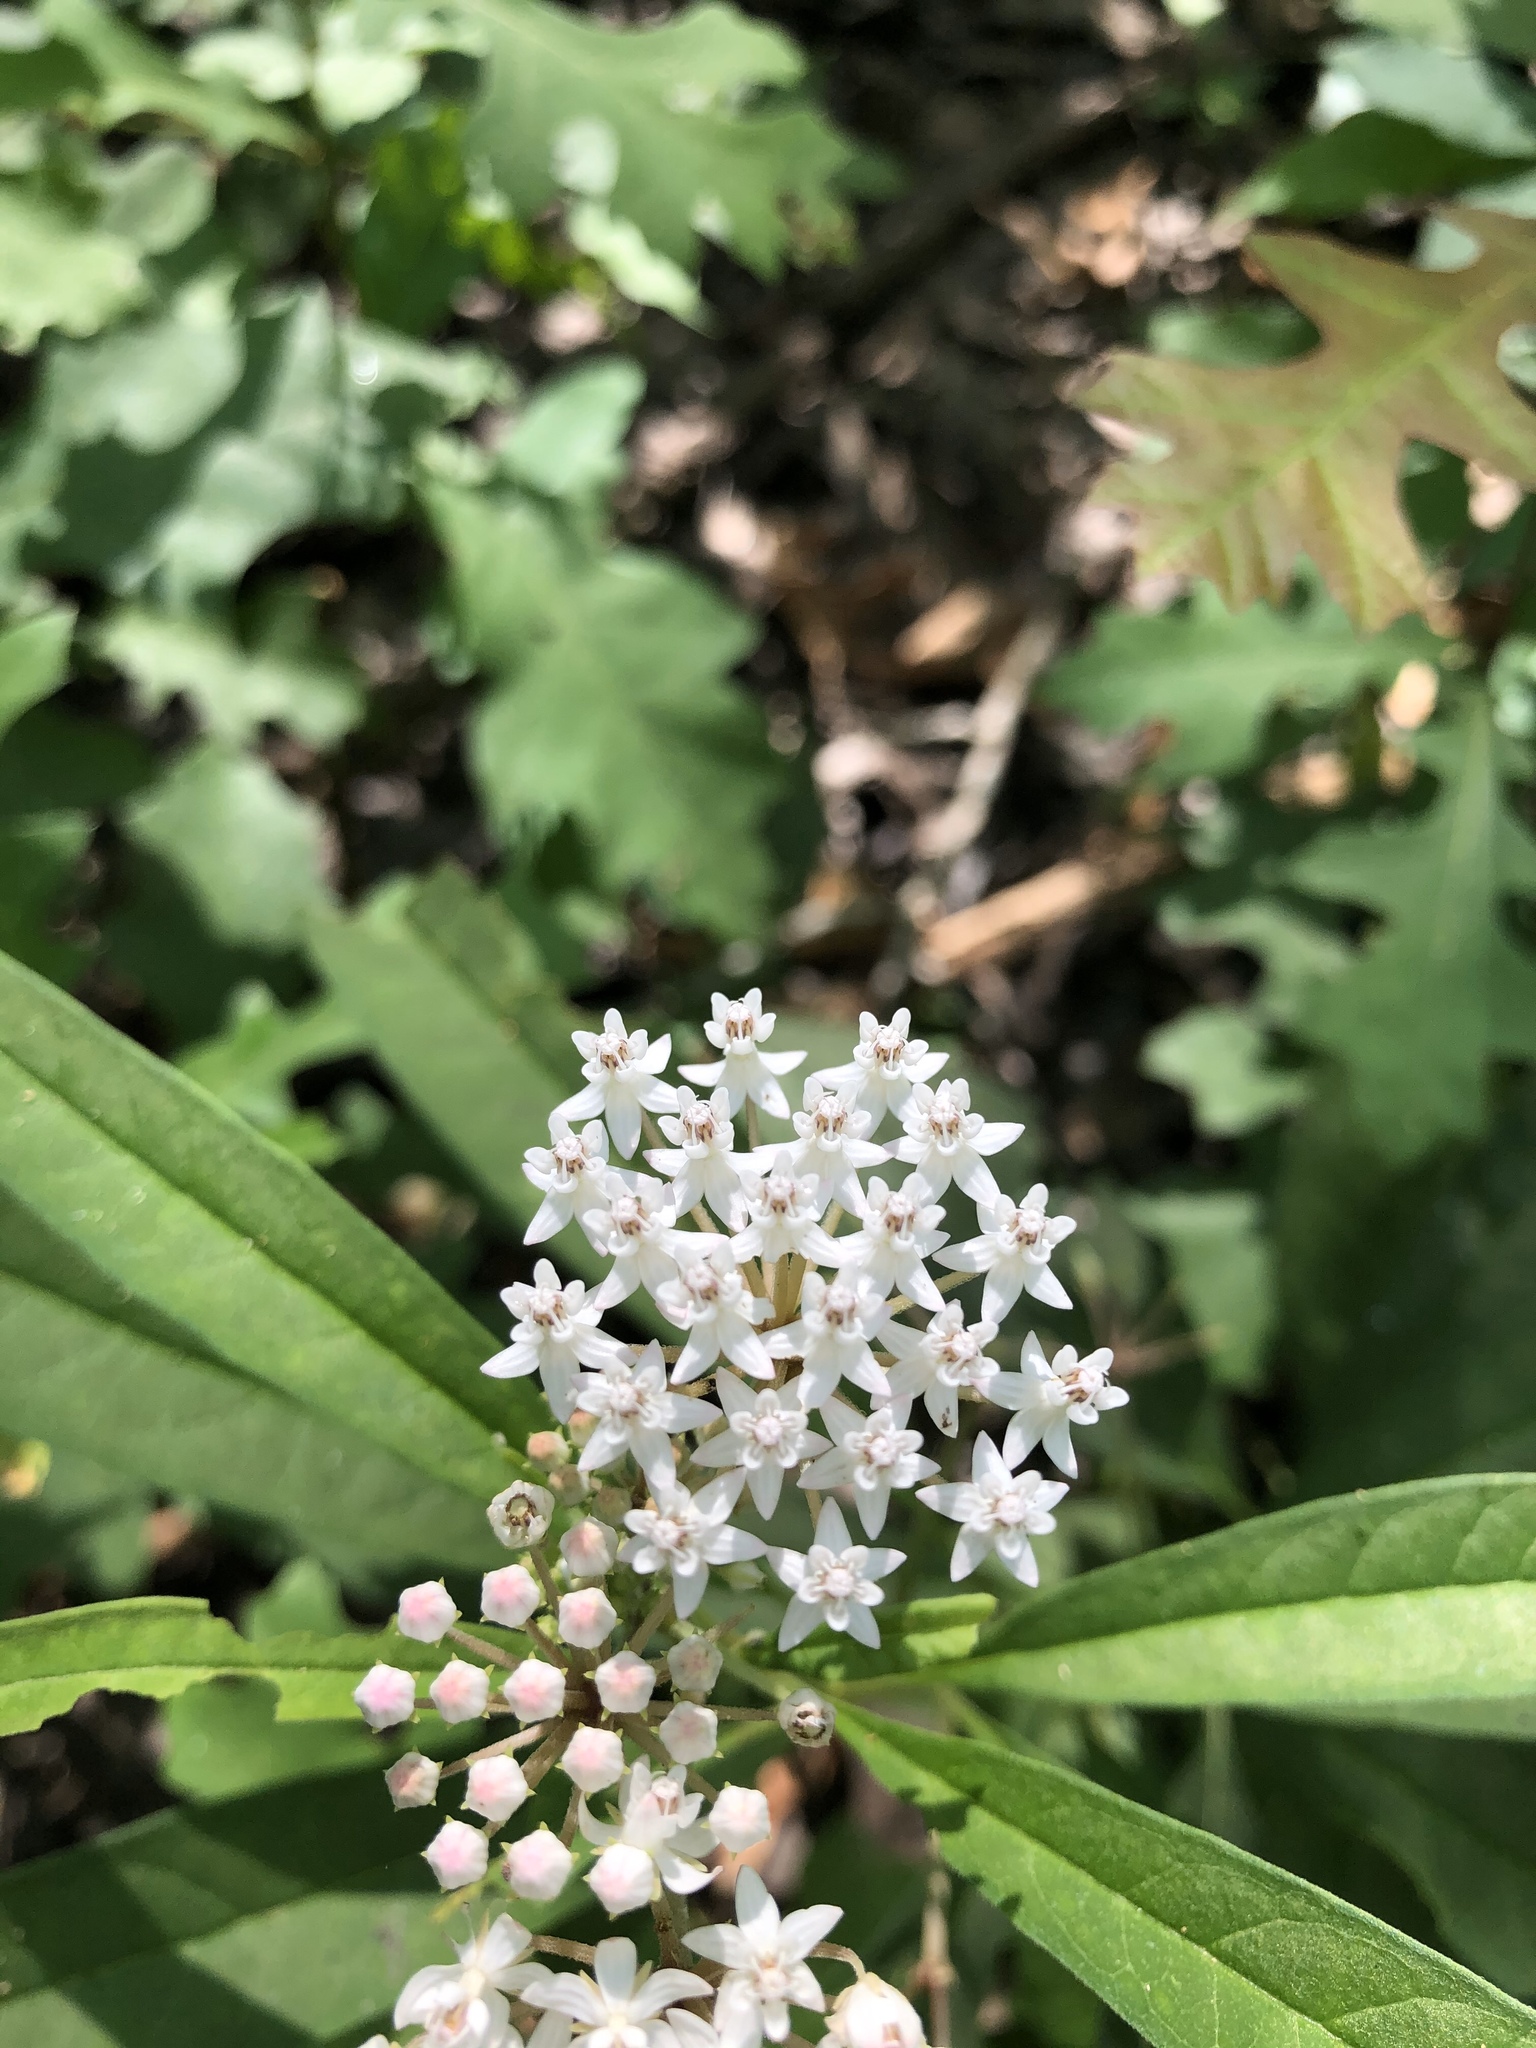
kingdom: Plantae
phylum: Tracheophyta
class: Magnoliopsida
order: Gentianales
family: Apocynaceae
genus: Asclepias
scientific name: Asclepias perennis
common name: Smooth-seed milkweed
